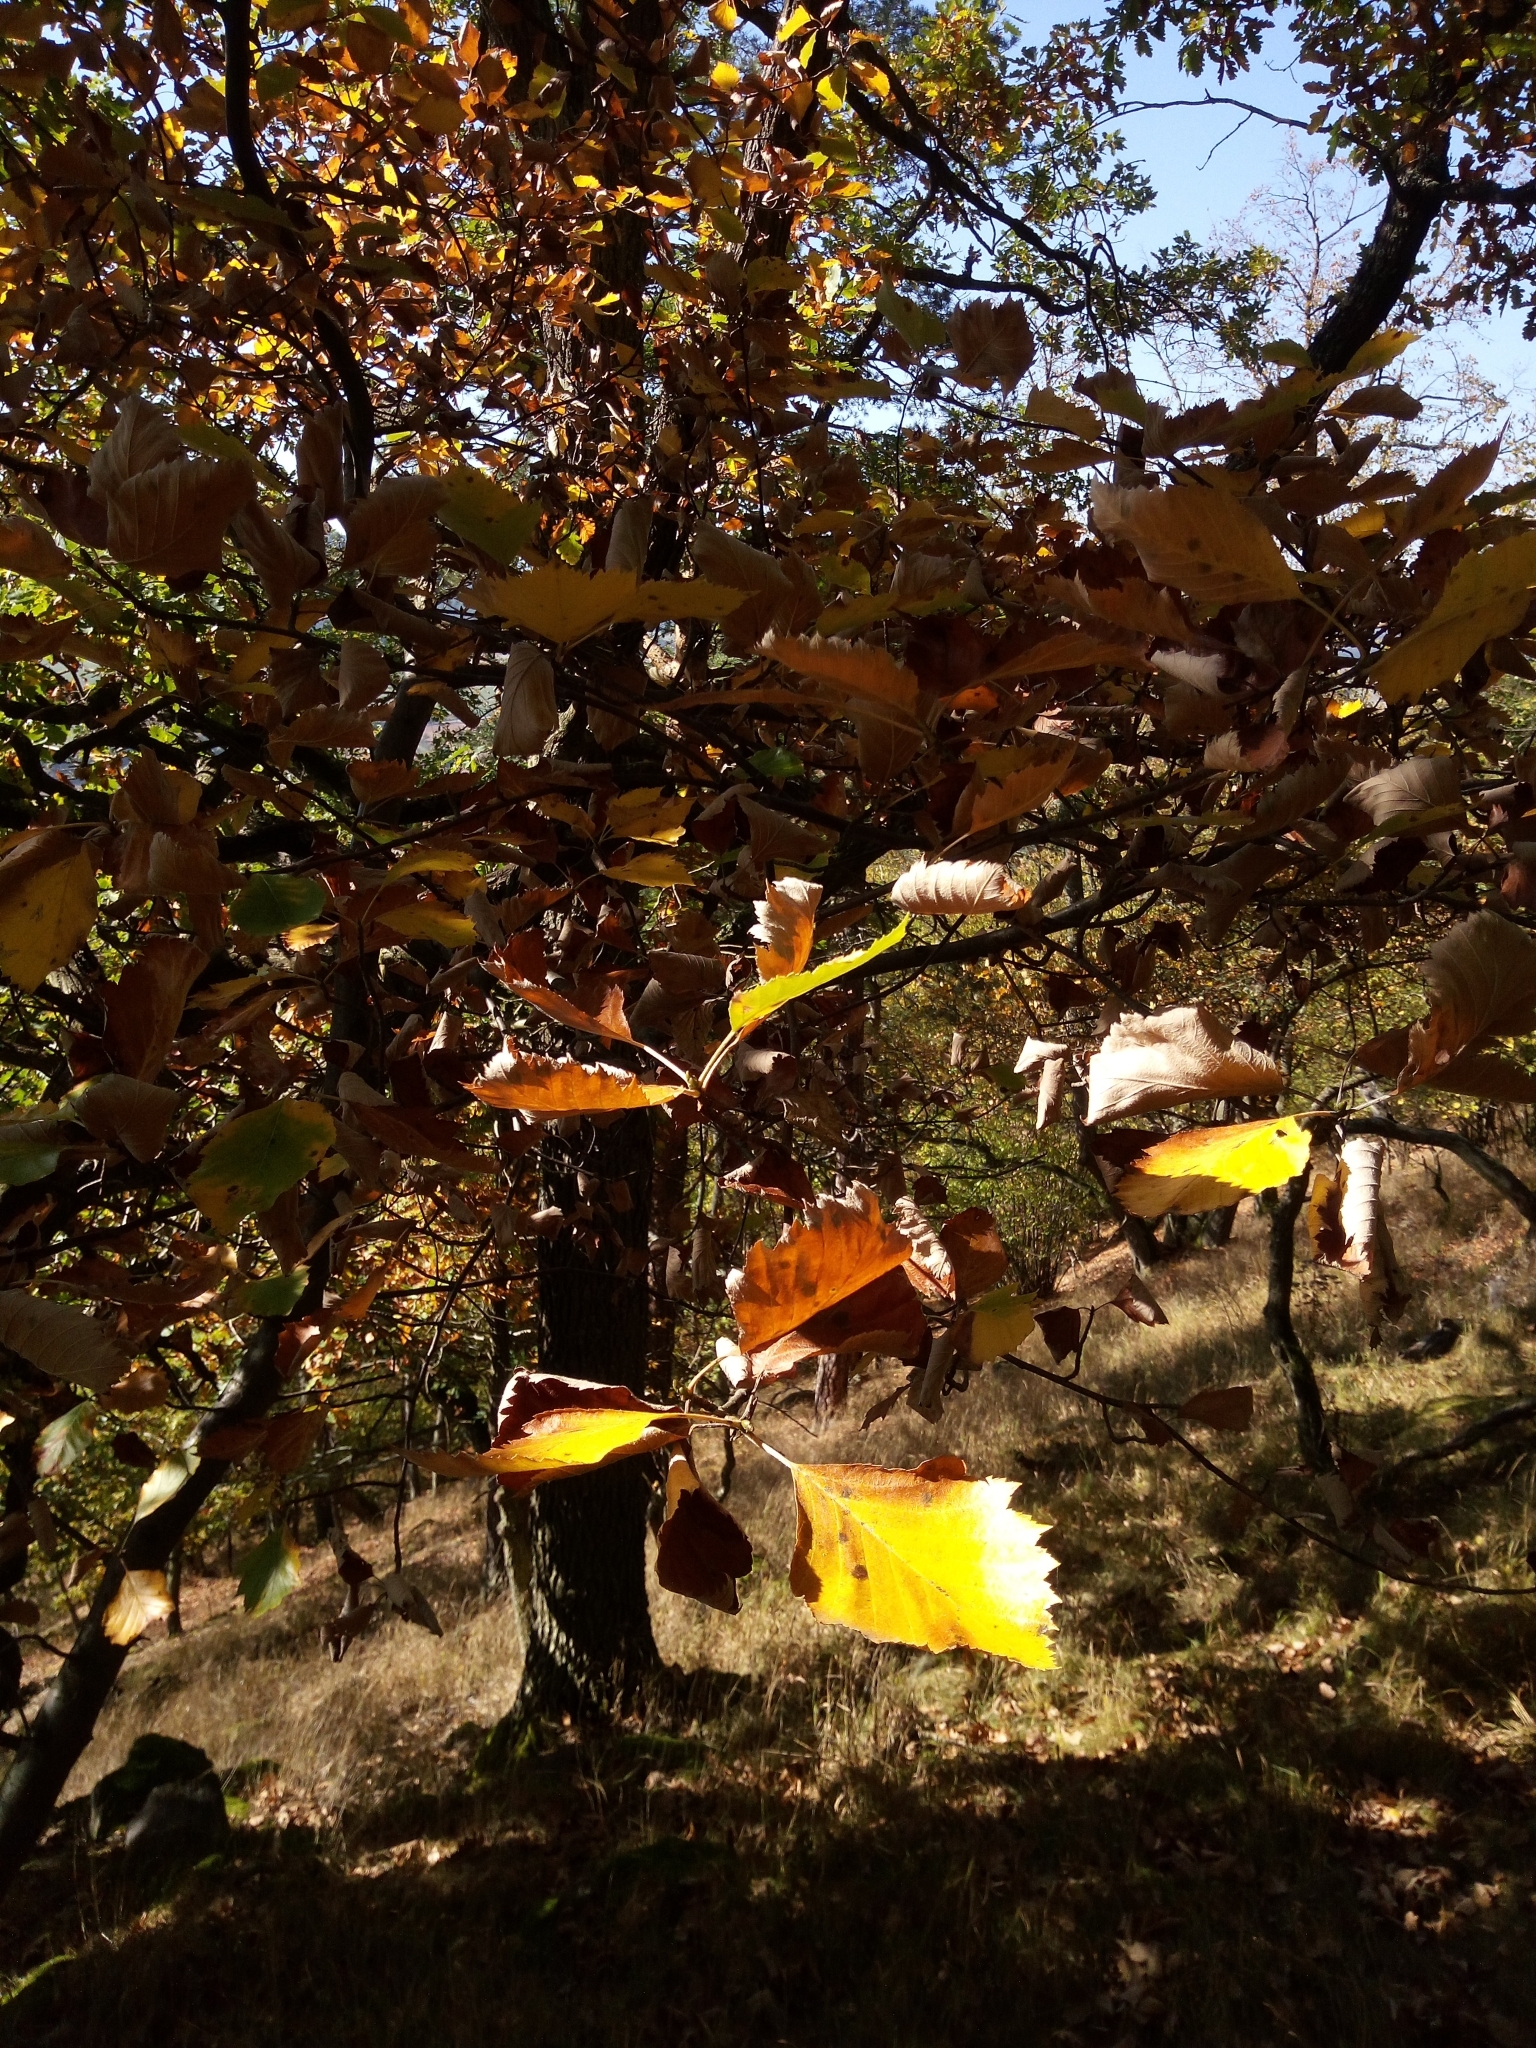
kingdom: Plantae
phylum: Tracheophyta
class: Magnoliopsida
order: Rosales
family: Rosaceae
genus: Karpatiosorbus
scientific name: Karpatiosorbus rhodanthera
